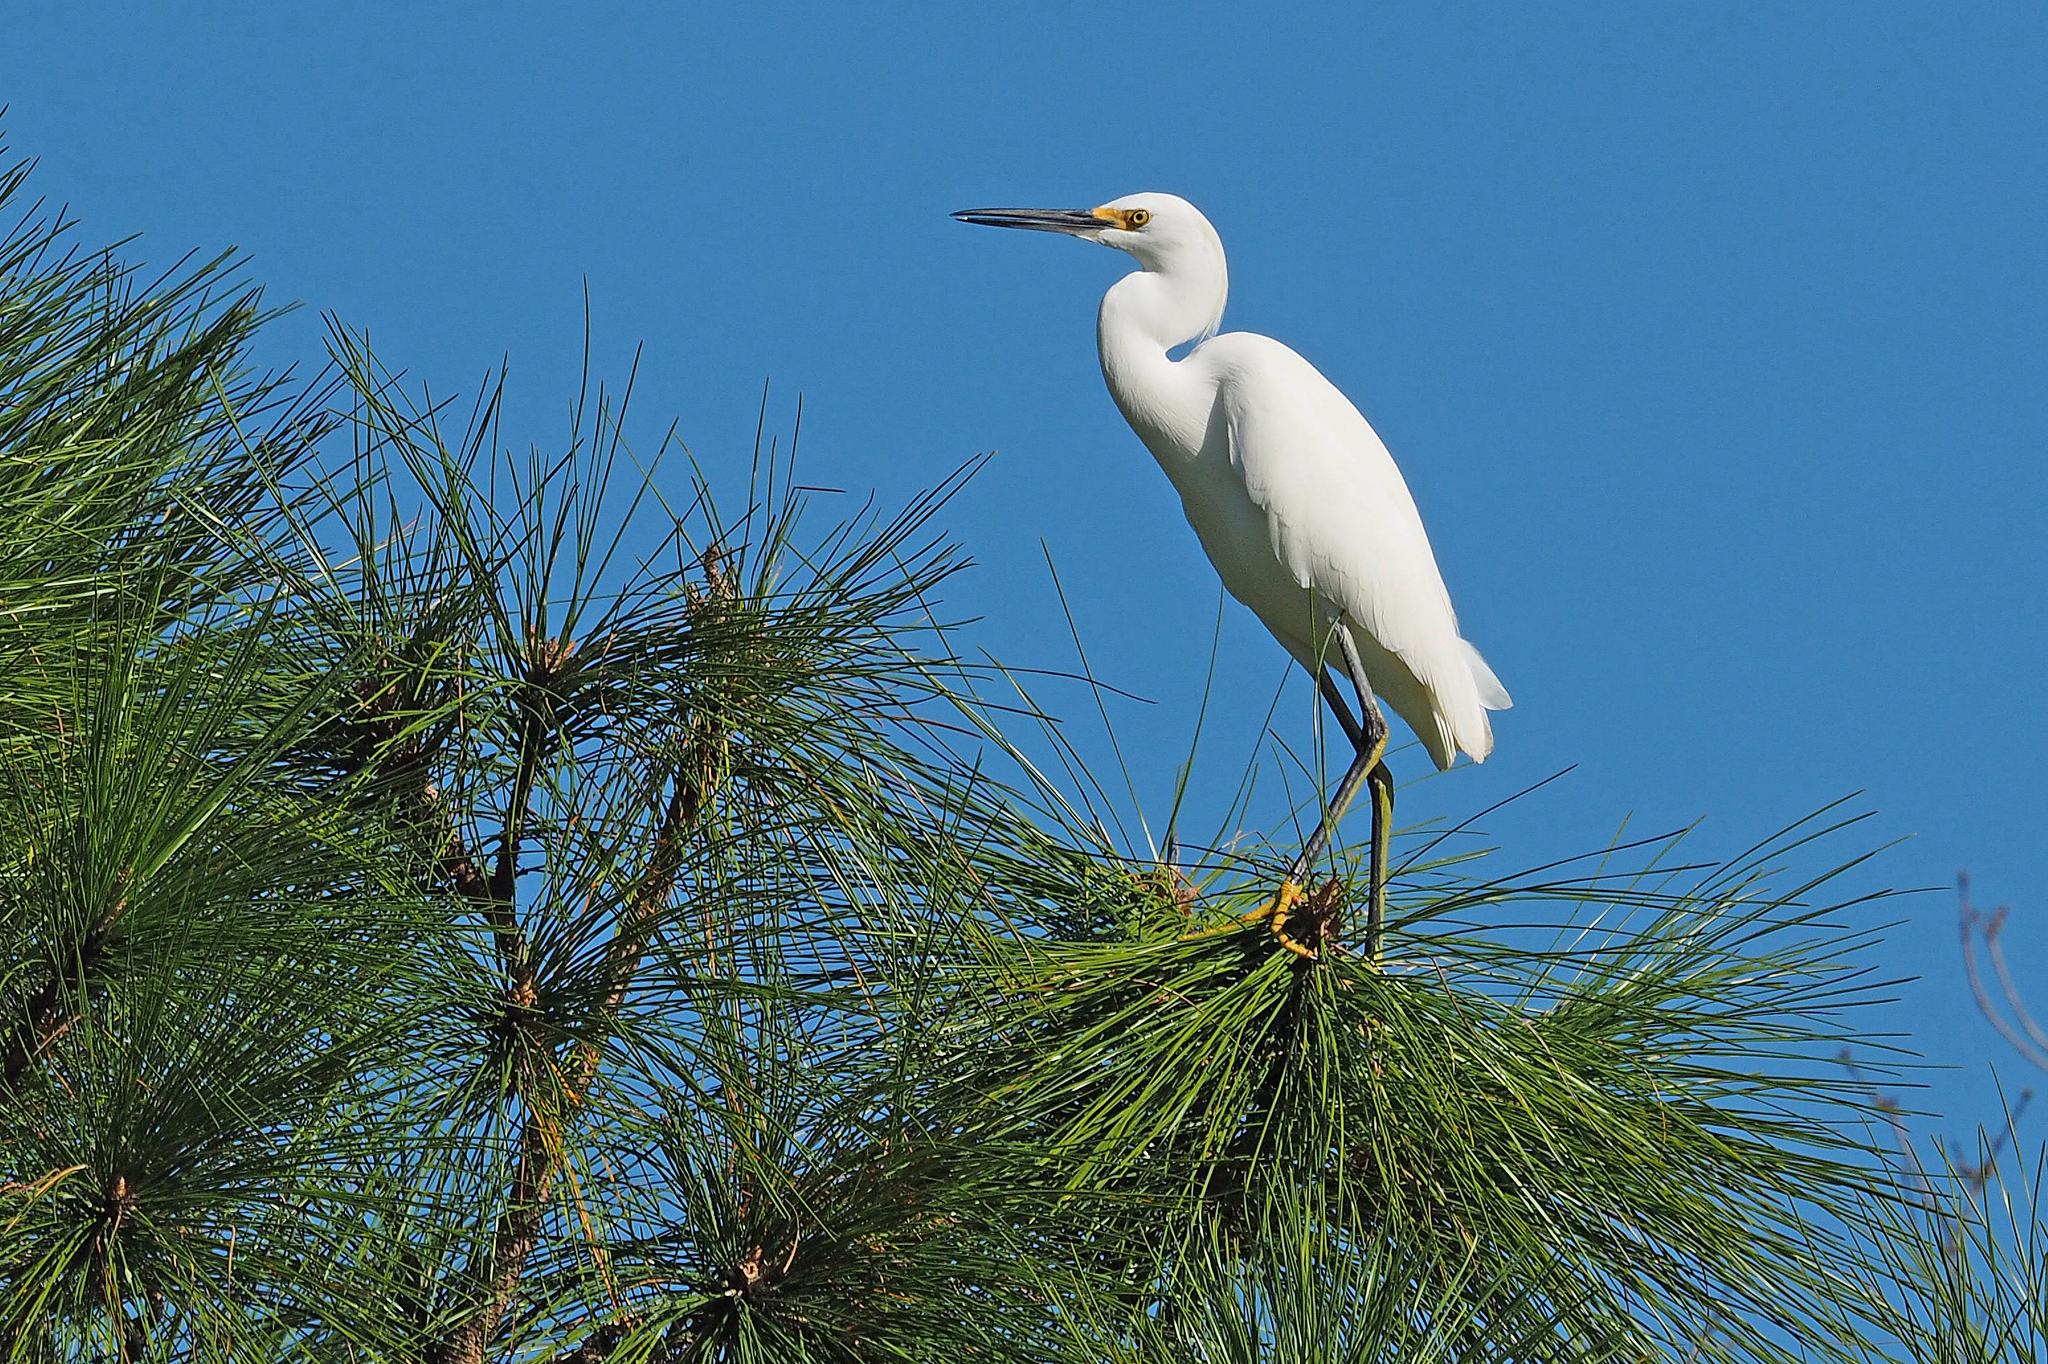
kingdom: Animalia
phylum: Chordata
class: Aves
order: Pelecaniformes
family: Ardeidae
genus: Egretta
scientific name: Egretta thula
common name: Snowy egret
